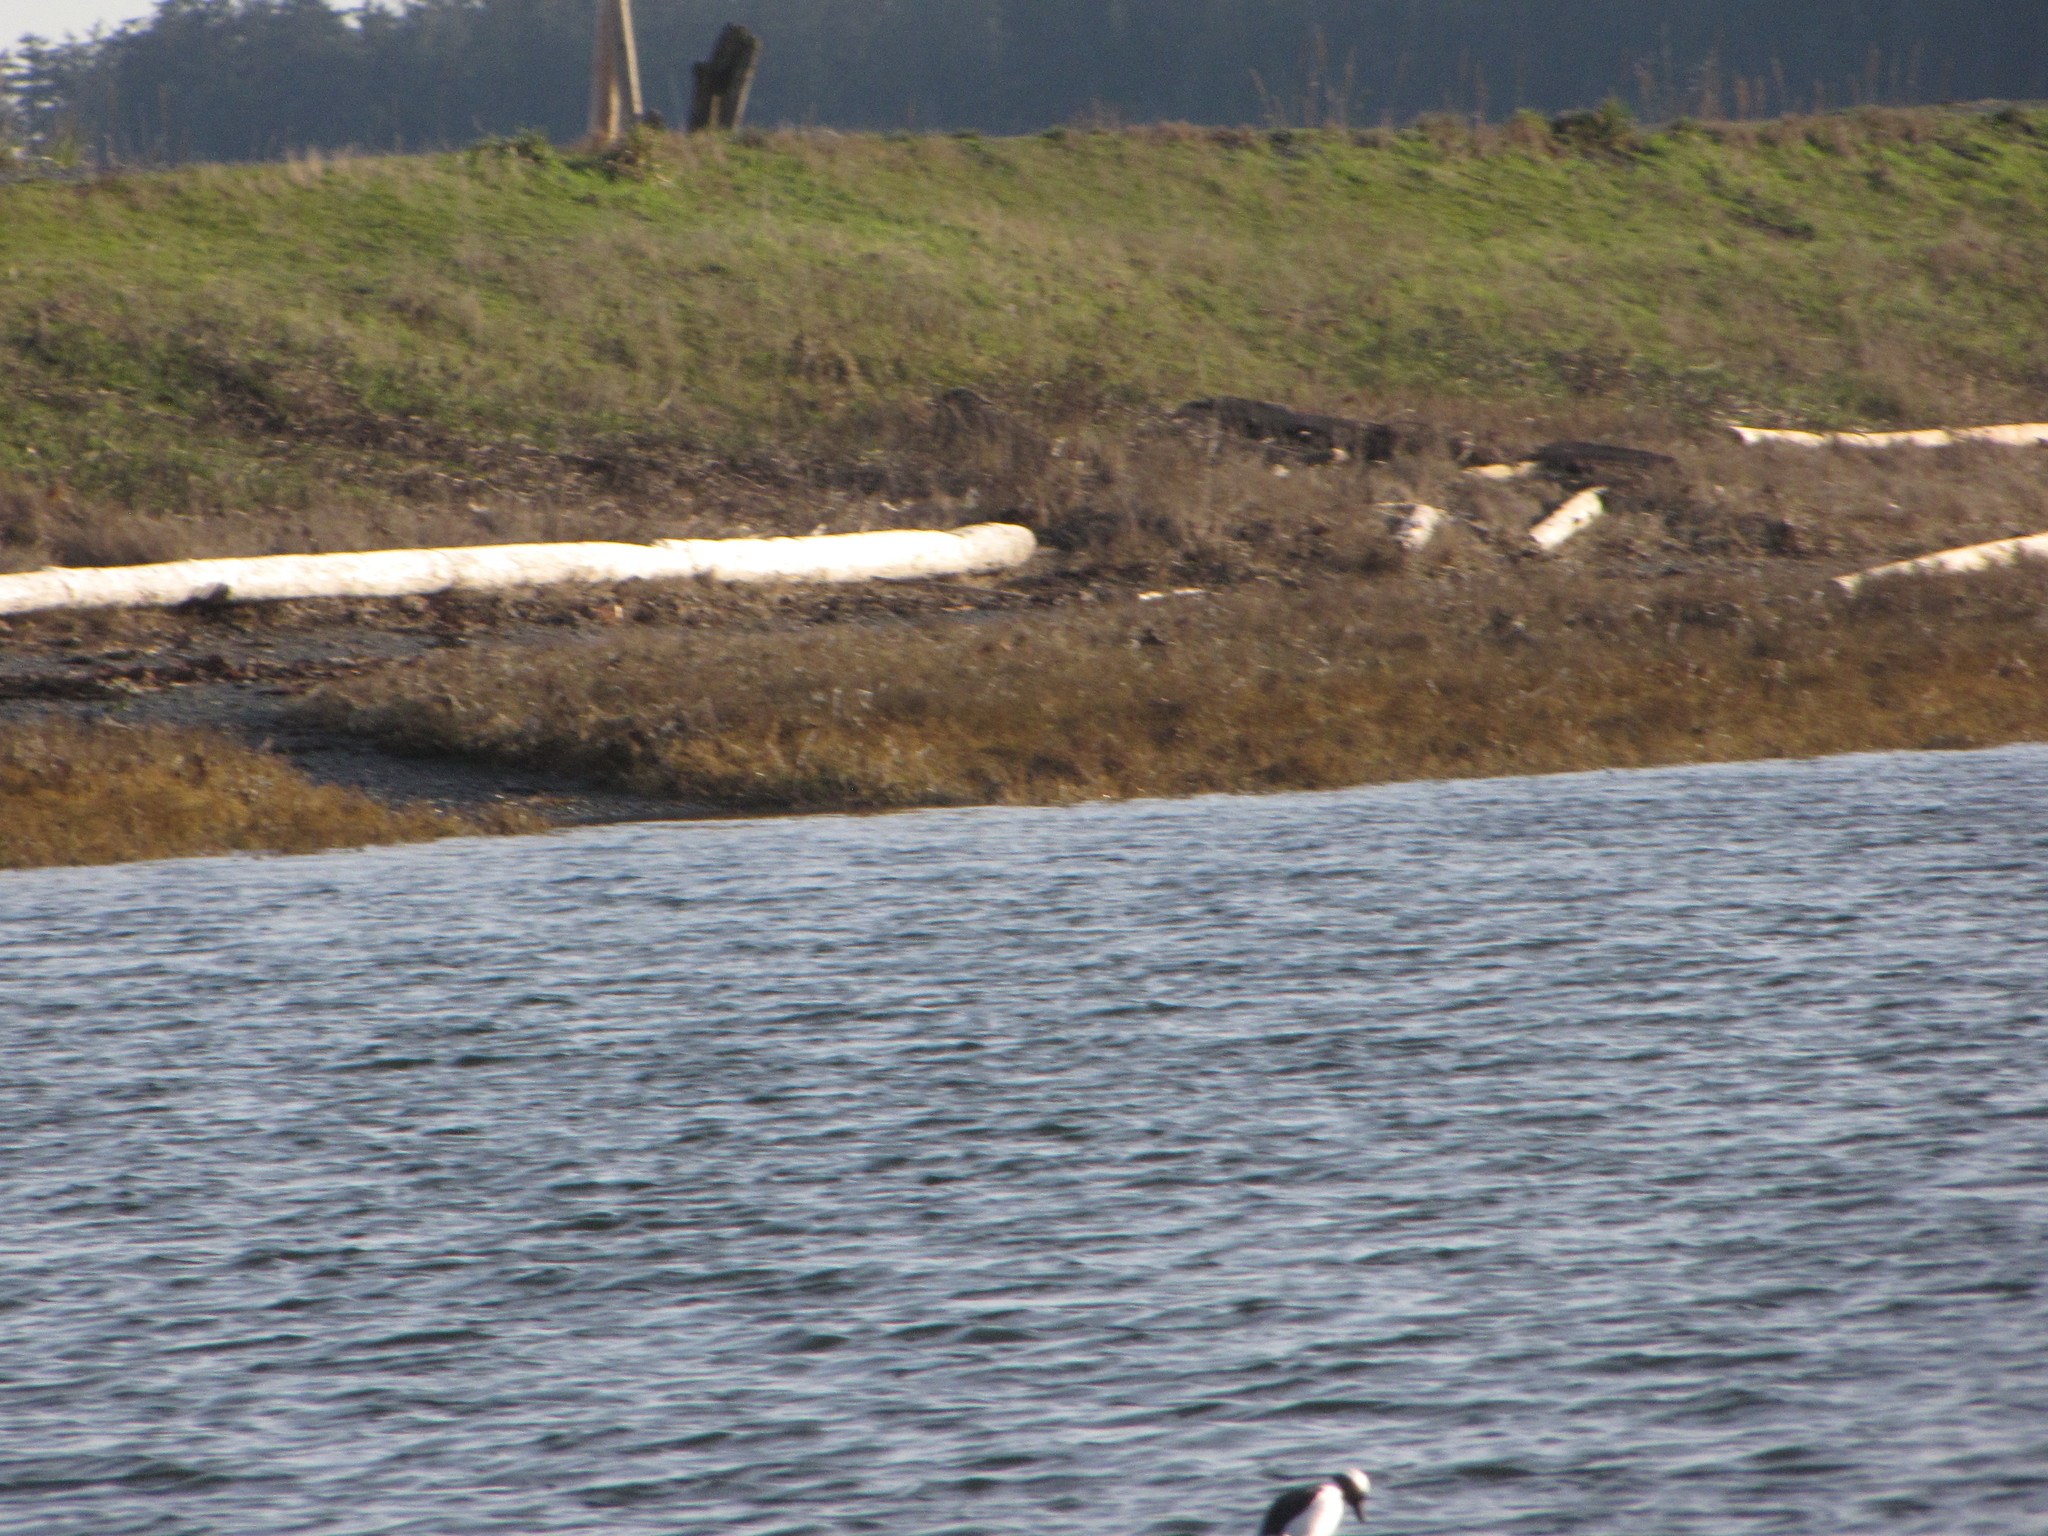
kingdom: Animalia
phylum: Chordata
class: Aves
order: Anseriformes
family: Anatidae
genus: Bucephala
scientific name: Bucephala albeola
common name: Bufflehead
